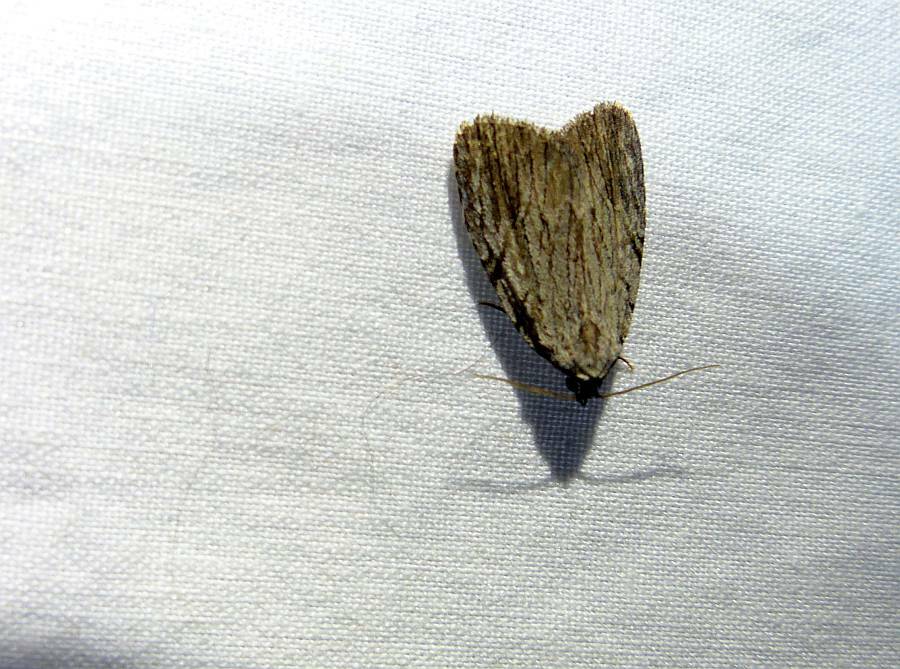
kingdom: Animalia
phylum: Arthropoda
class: Insecta
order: Lepidoptera
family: Noctuidae
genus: Balsa
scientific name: Balsa tristrigella
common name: Three-lined balsa moth
